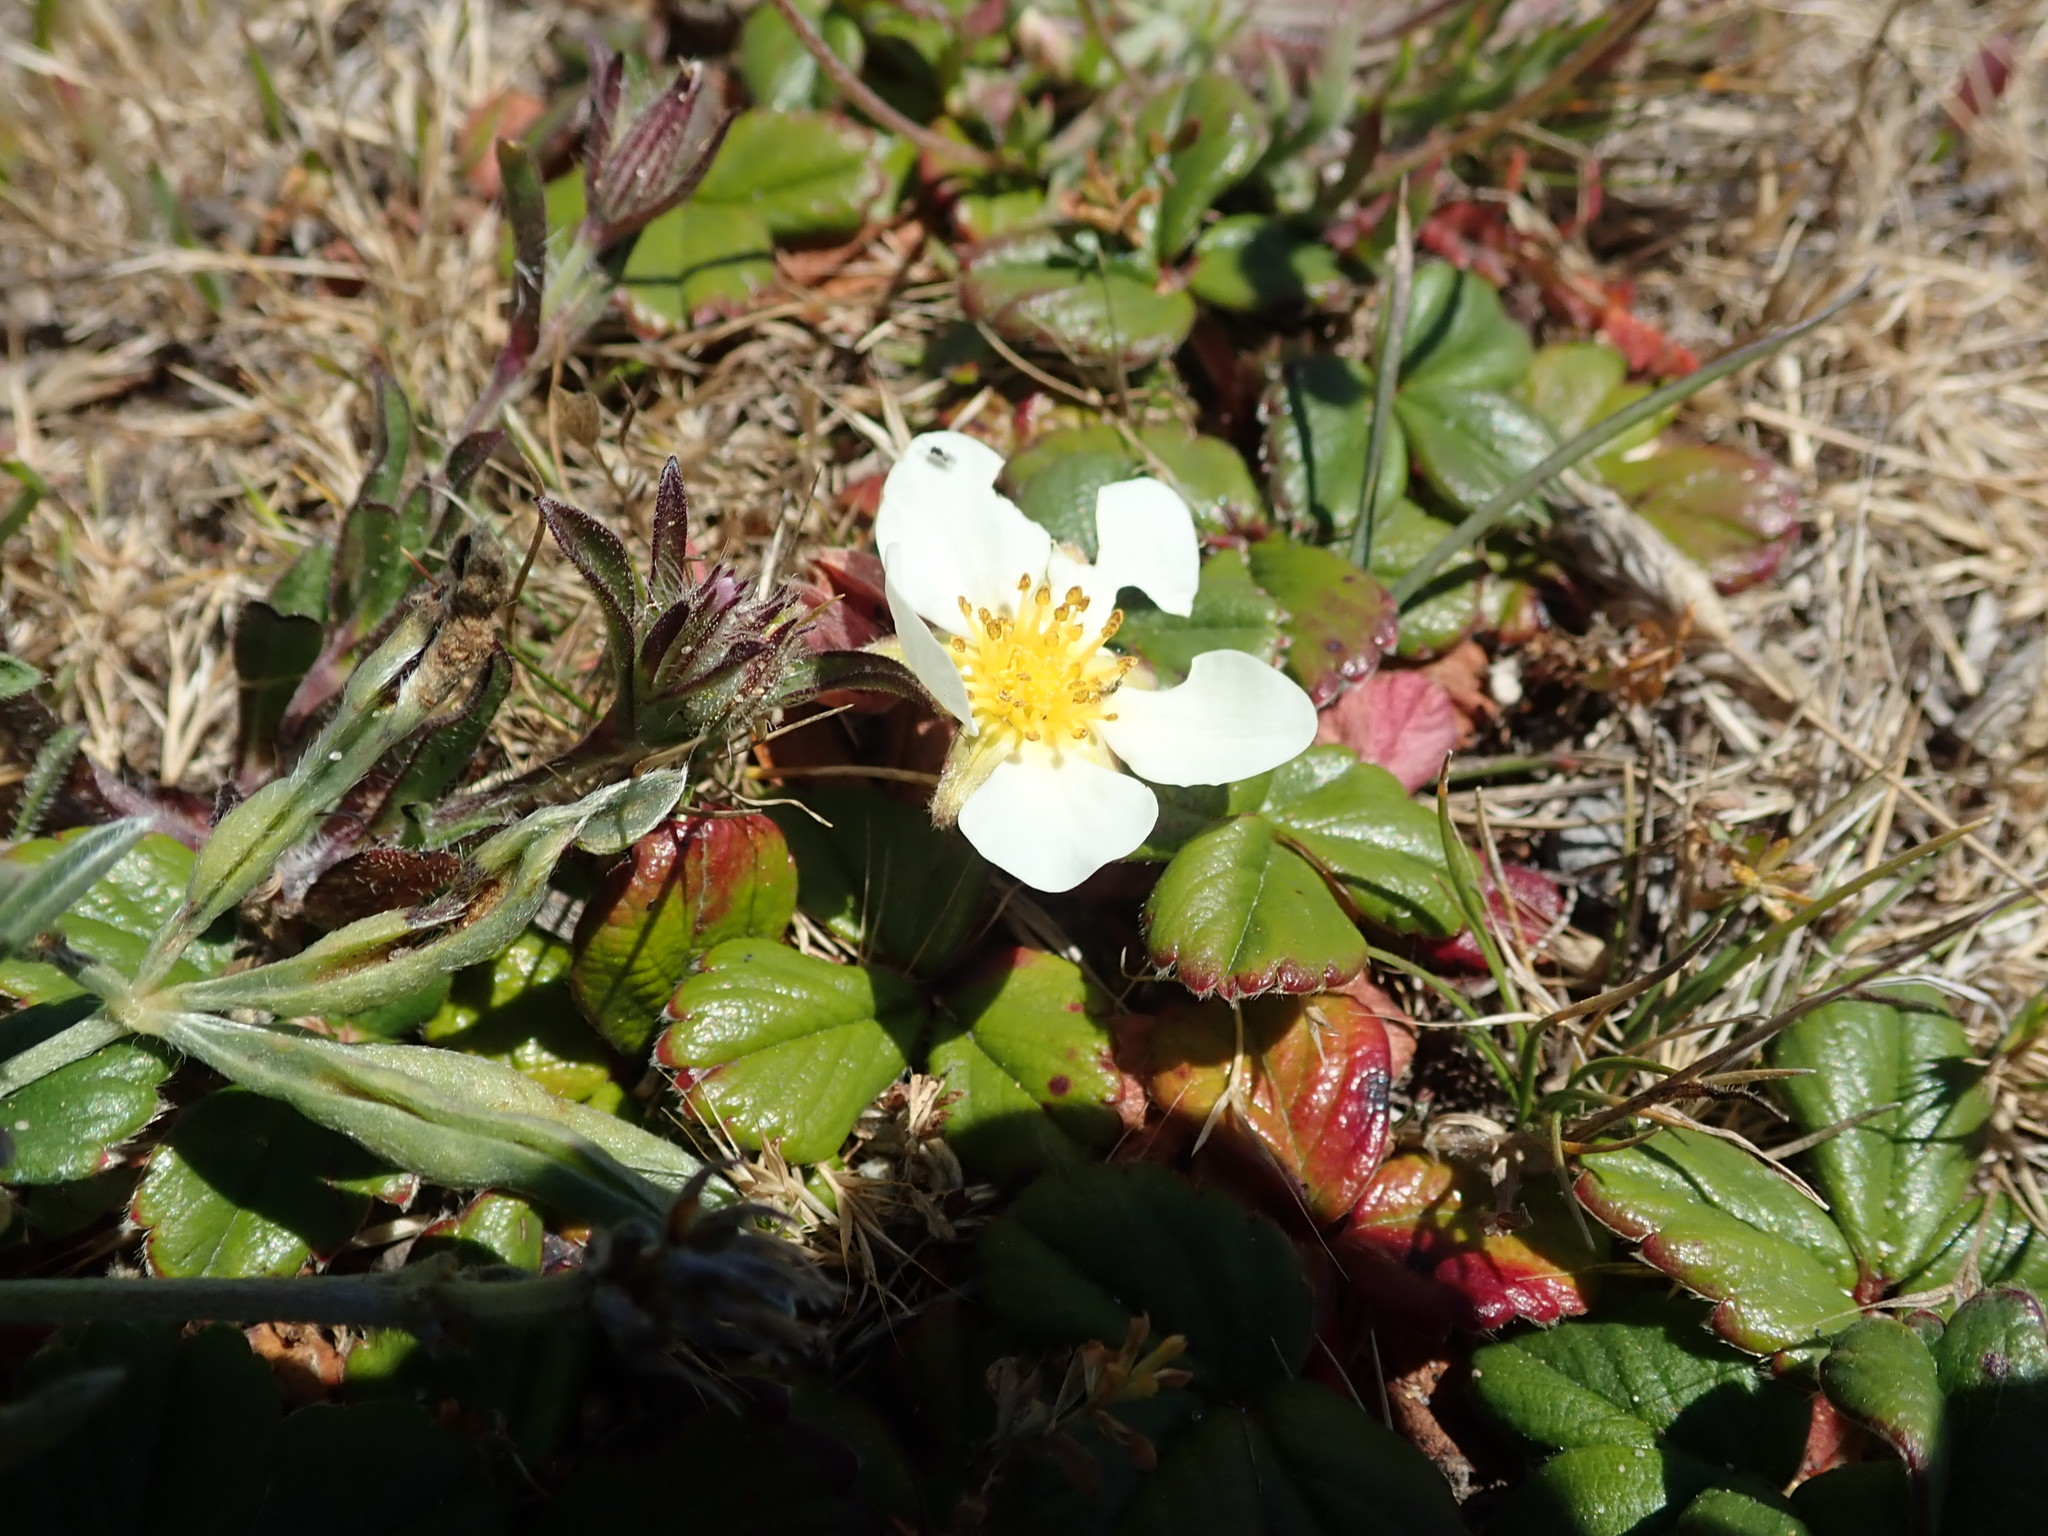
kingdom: Plantae
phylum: Tracheophyta
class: Magnoliopsida
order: Rosales
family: Rosaceae
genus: Fragaria
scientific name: Fragaria chiloensis
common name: Beach strawberry
